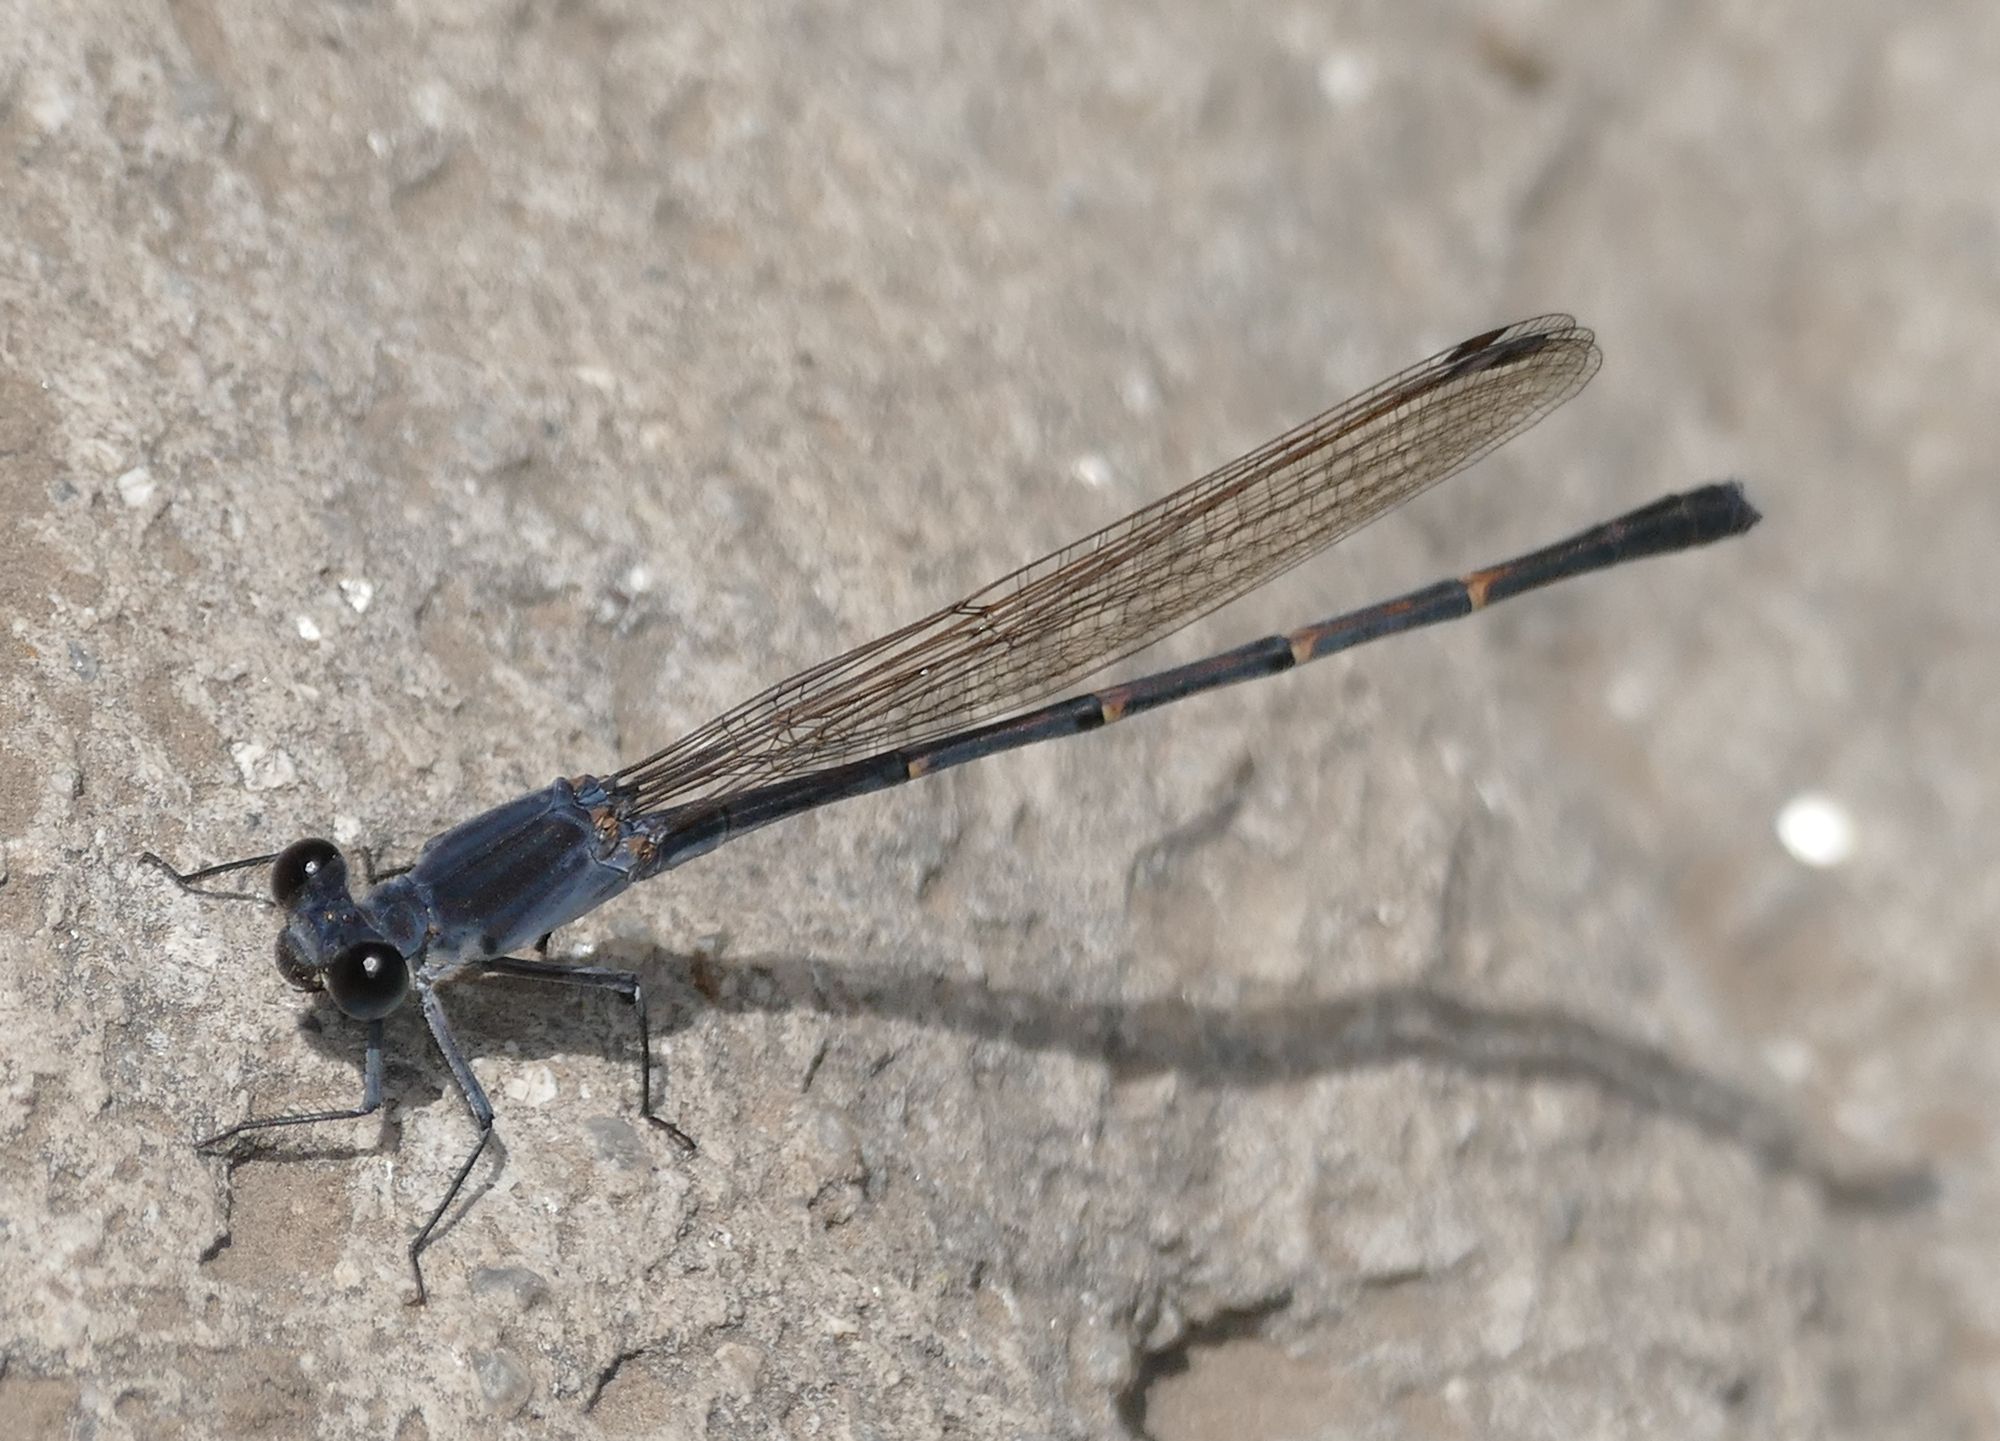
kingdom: Animalia
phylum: Arthropoda
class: Insecta
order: Odonata
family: Coenagrionidae
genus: Argia
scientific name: Argia lugens
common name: Sooty dancer
